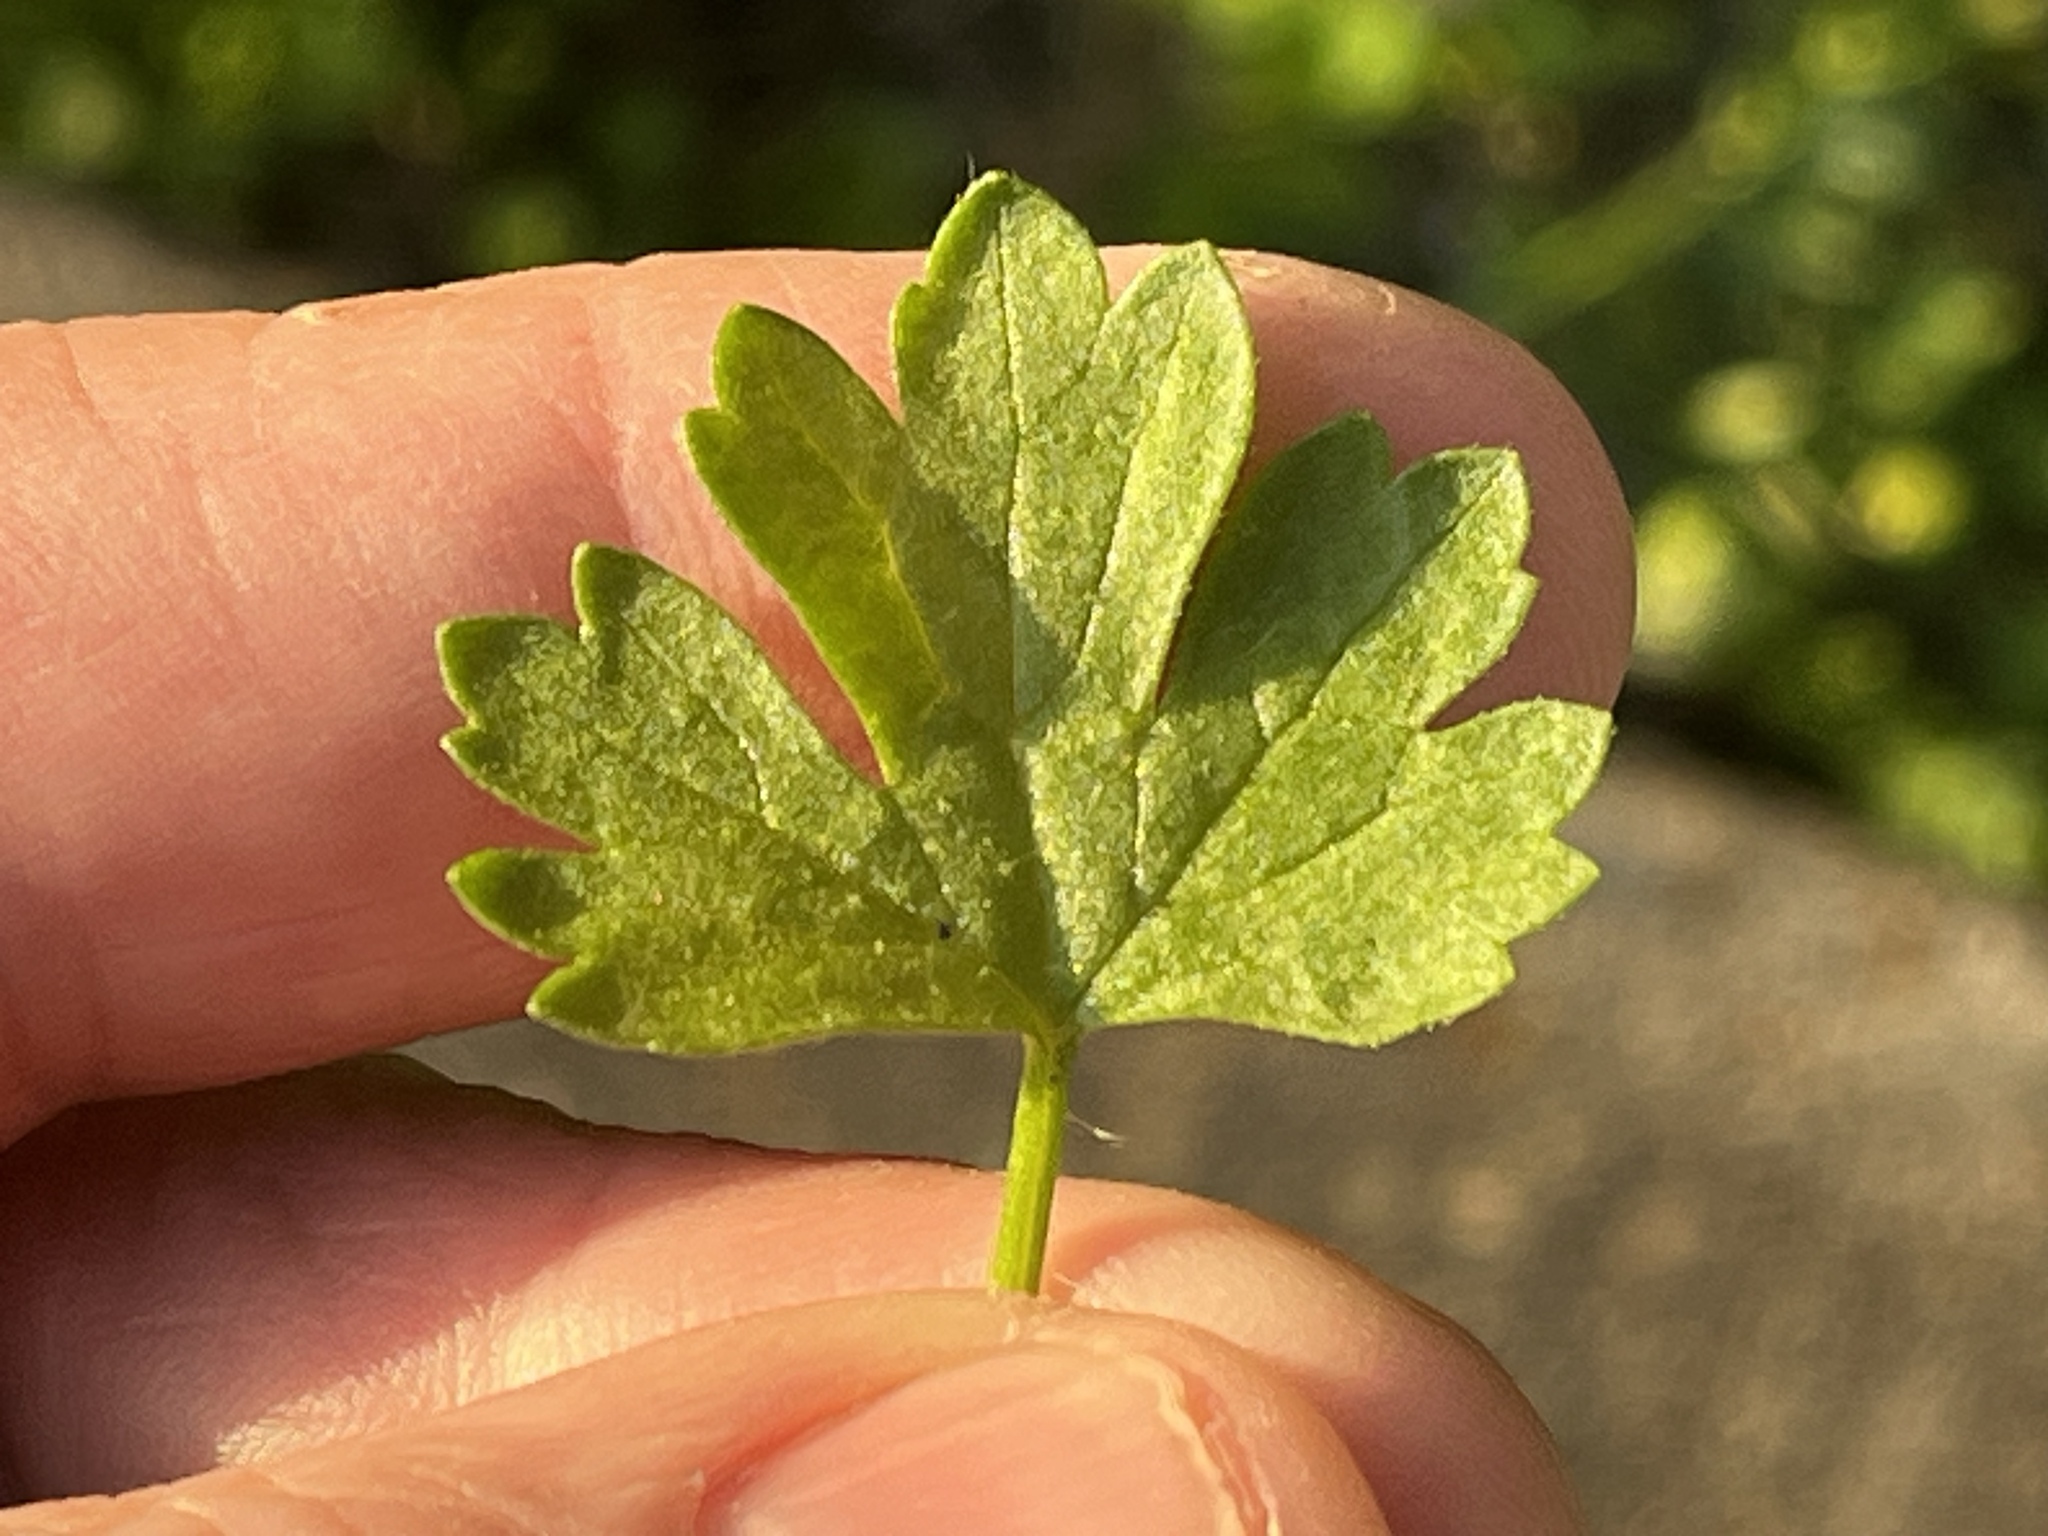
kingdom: Plantae
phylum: Tracheophyta
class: Magnoliopsida
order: Ranunculales
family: Ranunculaceae
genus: Ranunculus
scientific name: Ranunculus muricatus
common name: Rough-fruited buttercup
